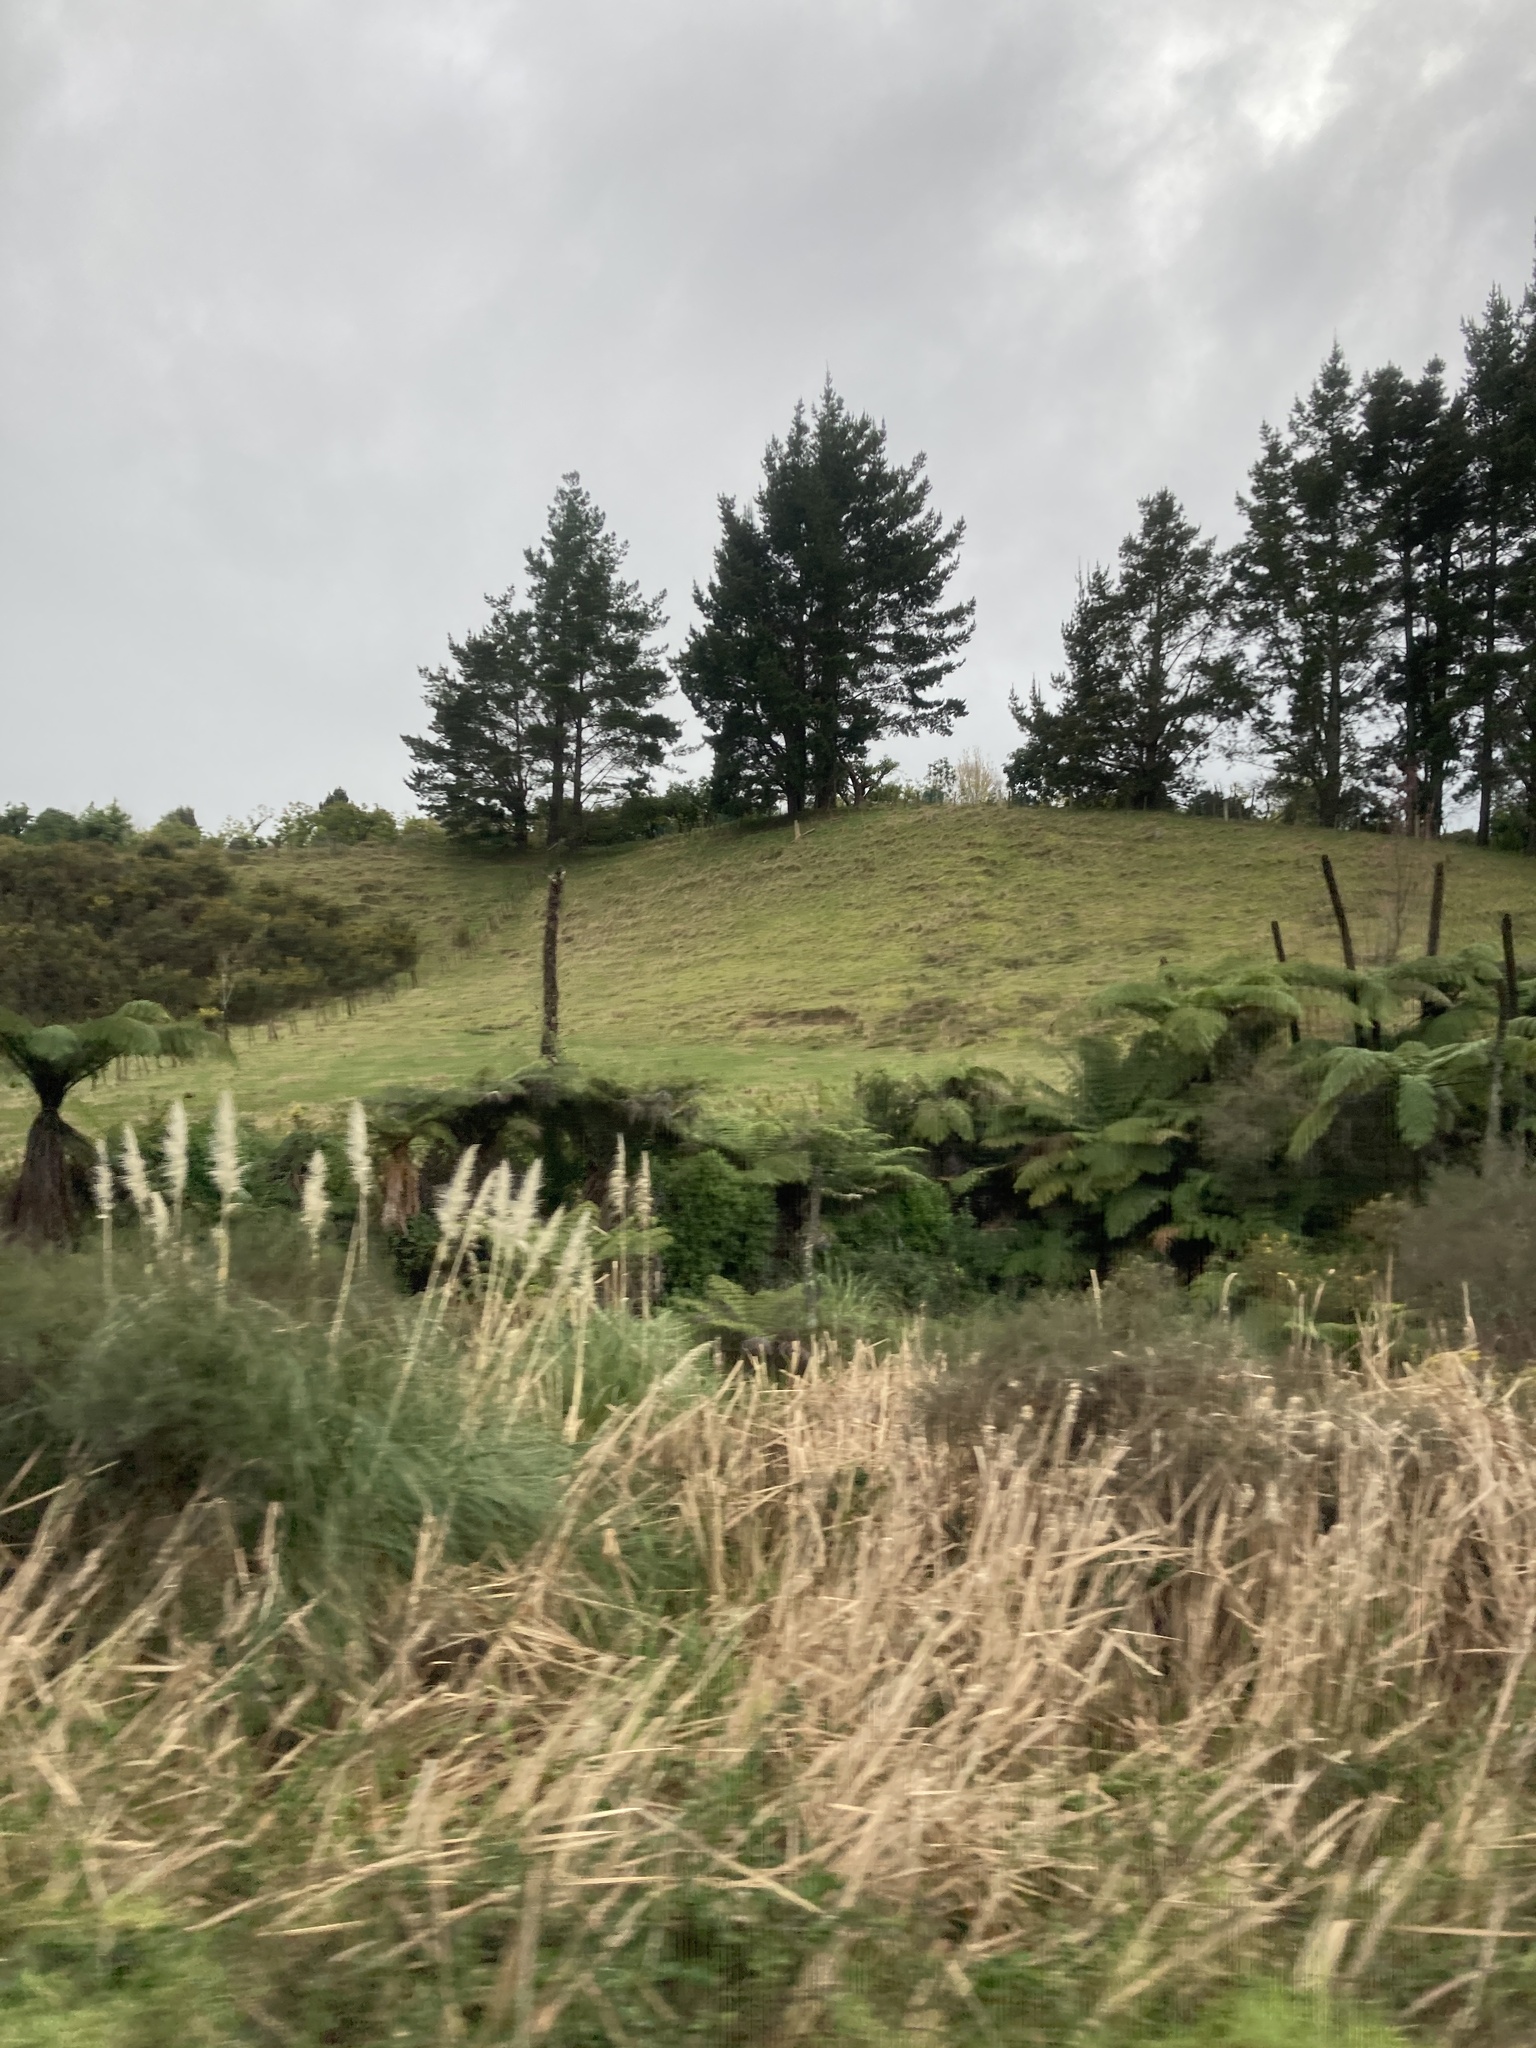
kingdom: Plantae
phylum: Tracheophyta
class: Liliopsida
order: Poales
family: Poaceae
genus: Cortaderia
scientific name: Cortaderia selloana
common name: Uruguayan pampas grass
